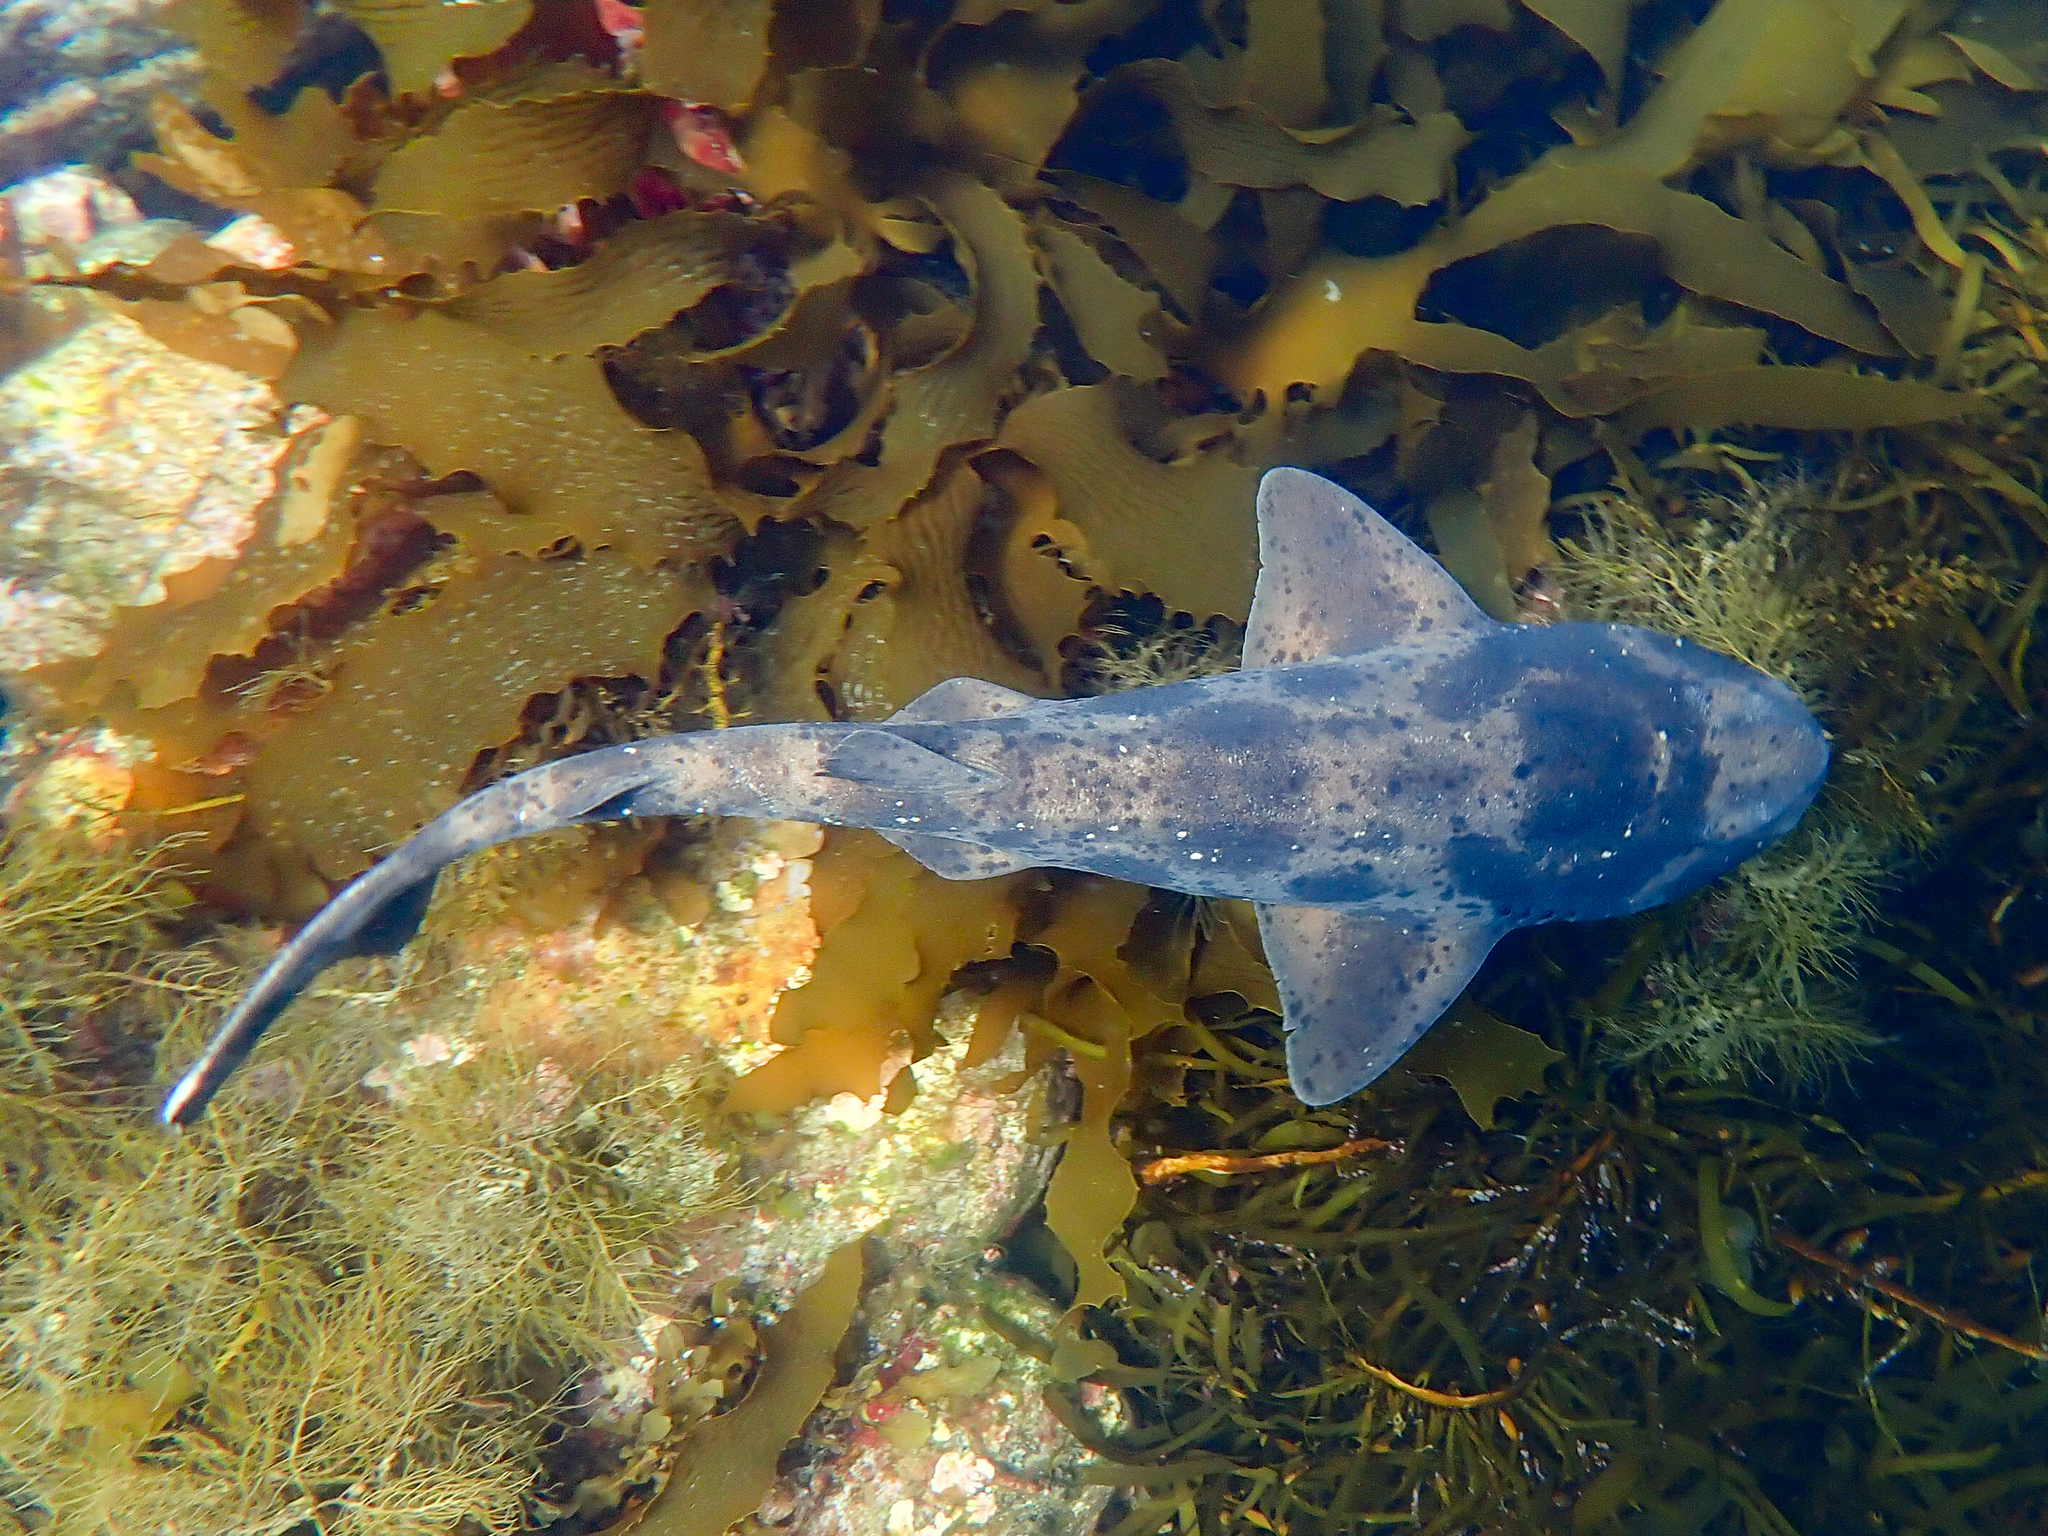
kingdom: Animalia
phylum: Chordata
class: Elasmobranchii
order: Carcharhiniformes
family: Scyliorhinidae
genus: Cephaloscyllium
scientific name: Cephaloscyllium laticeps
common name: Australian swellshark
